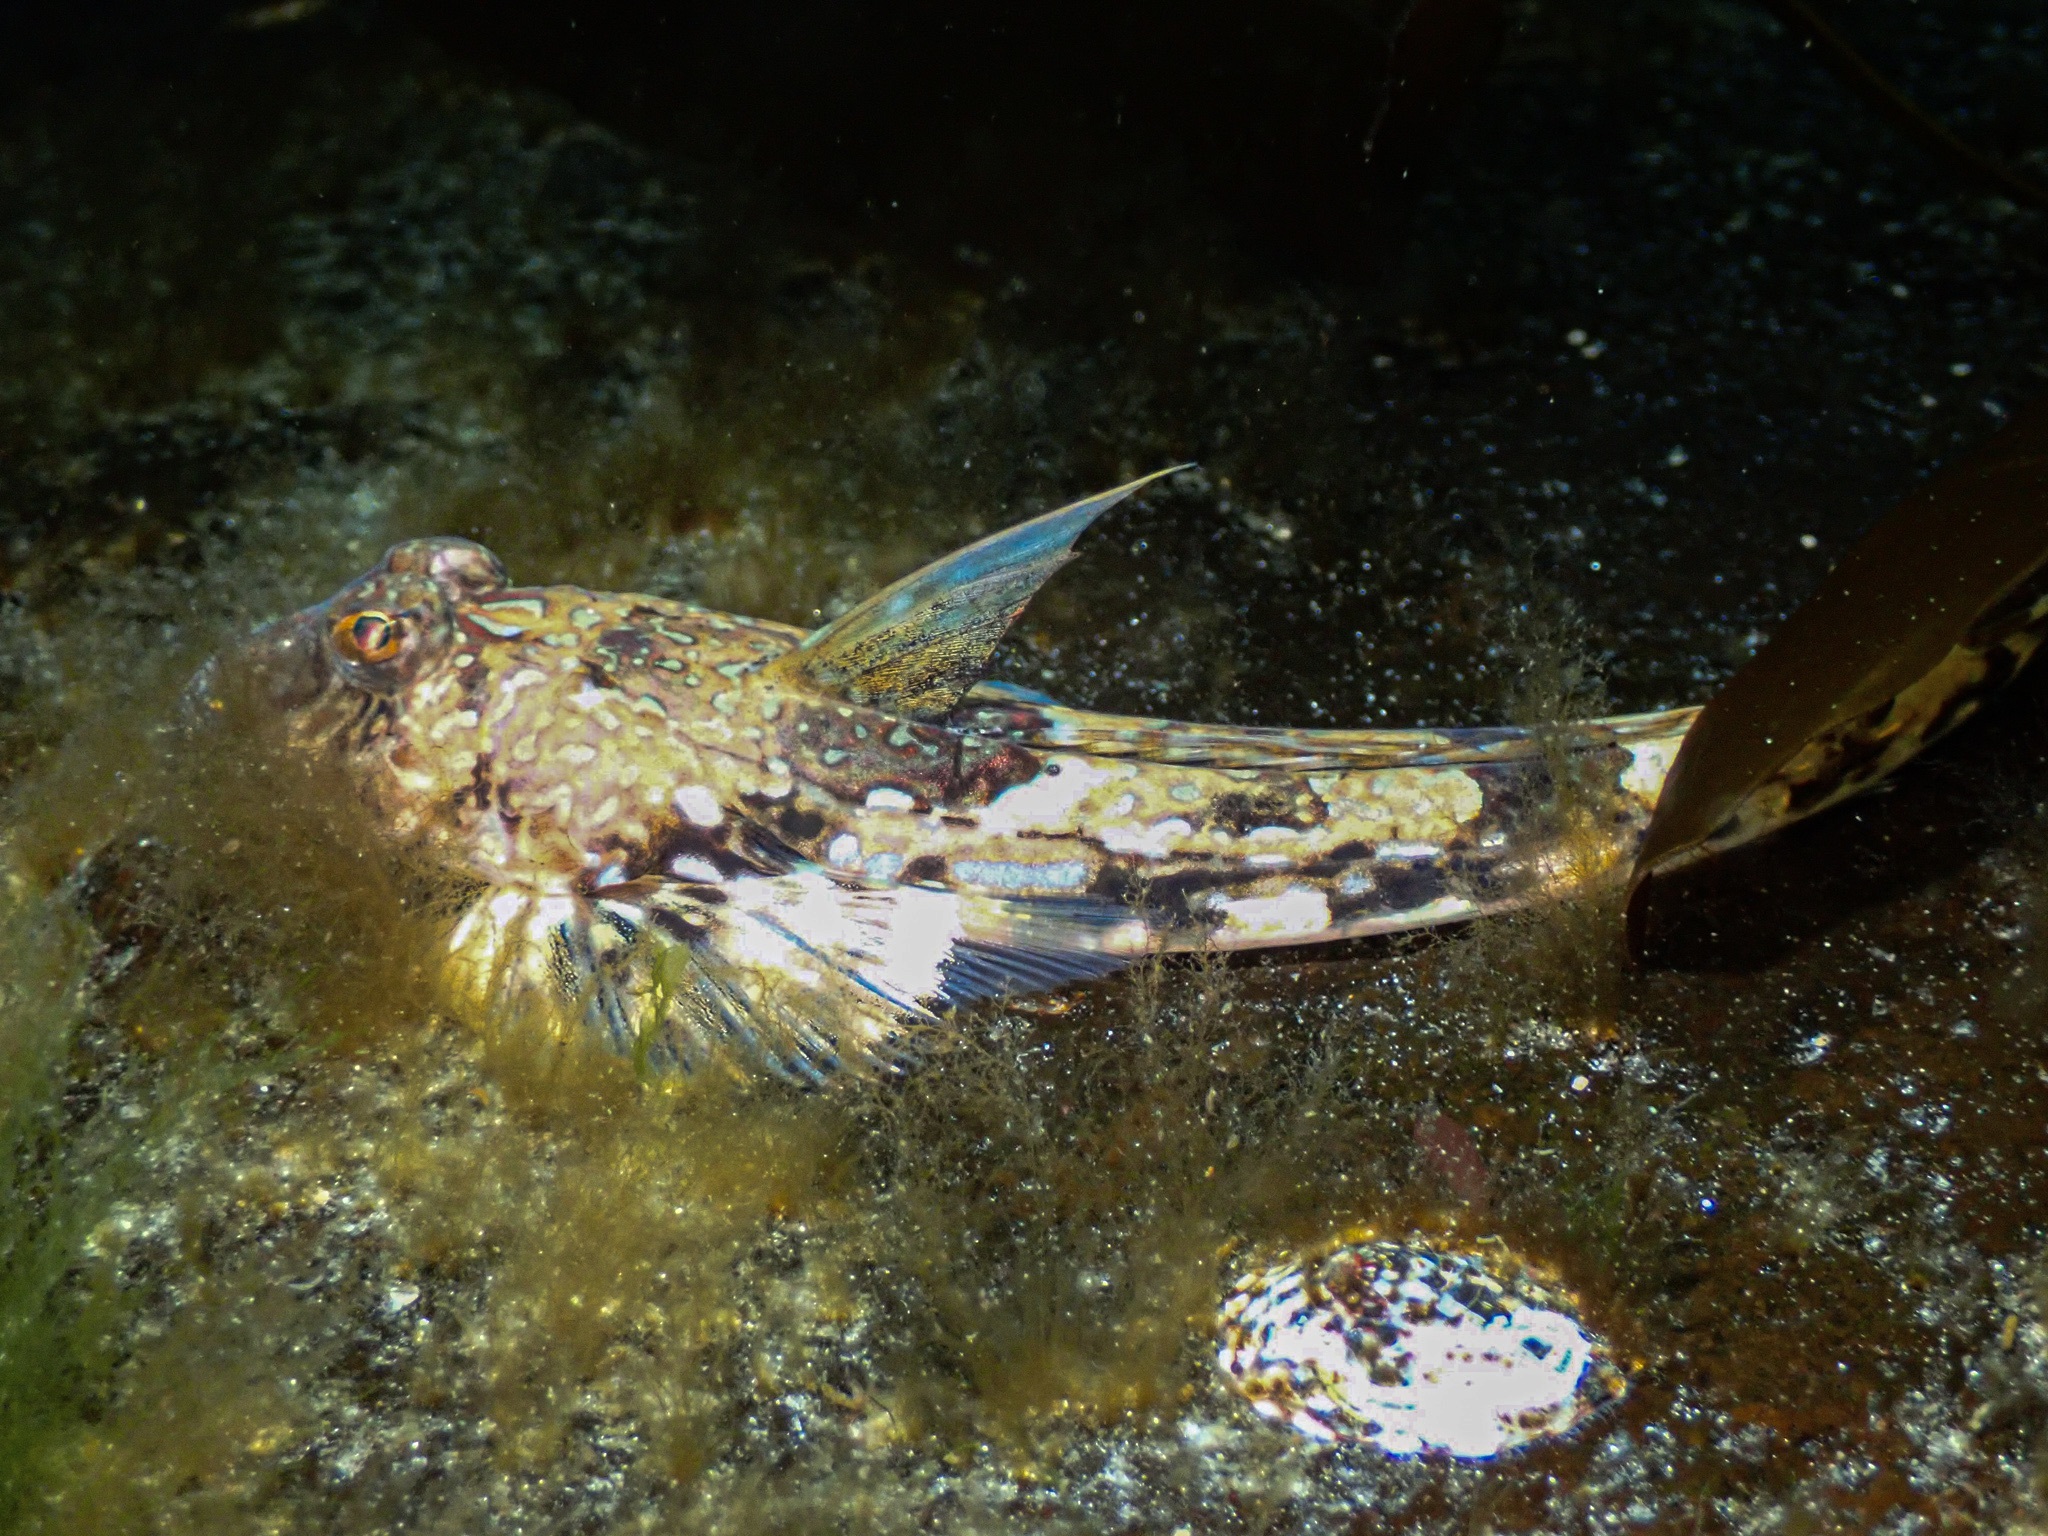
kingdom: Animalia
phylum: Chordata
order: Perciformes
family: Callionymidae
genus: Callionymus
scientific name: Callionymus reticulatus
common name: Reticulated dragonet
